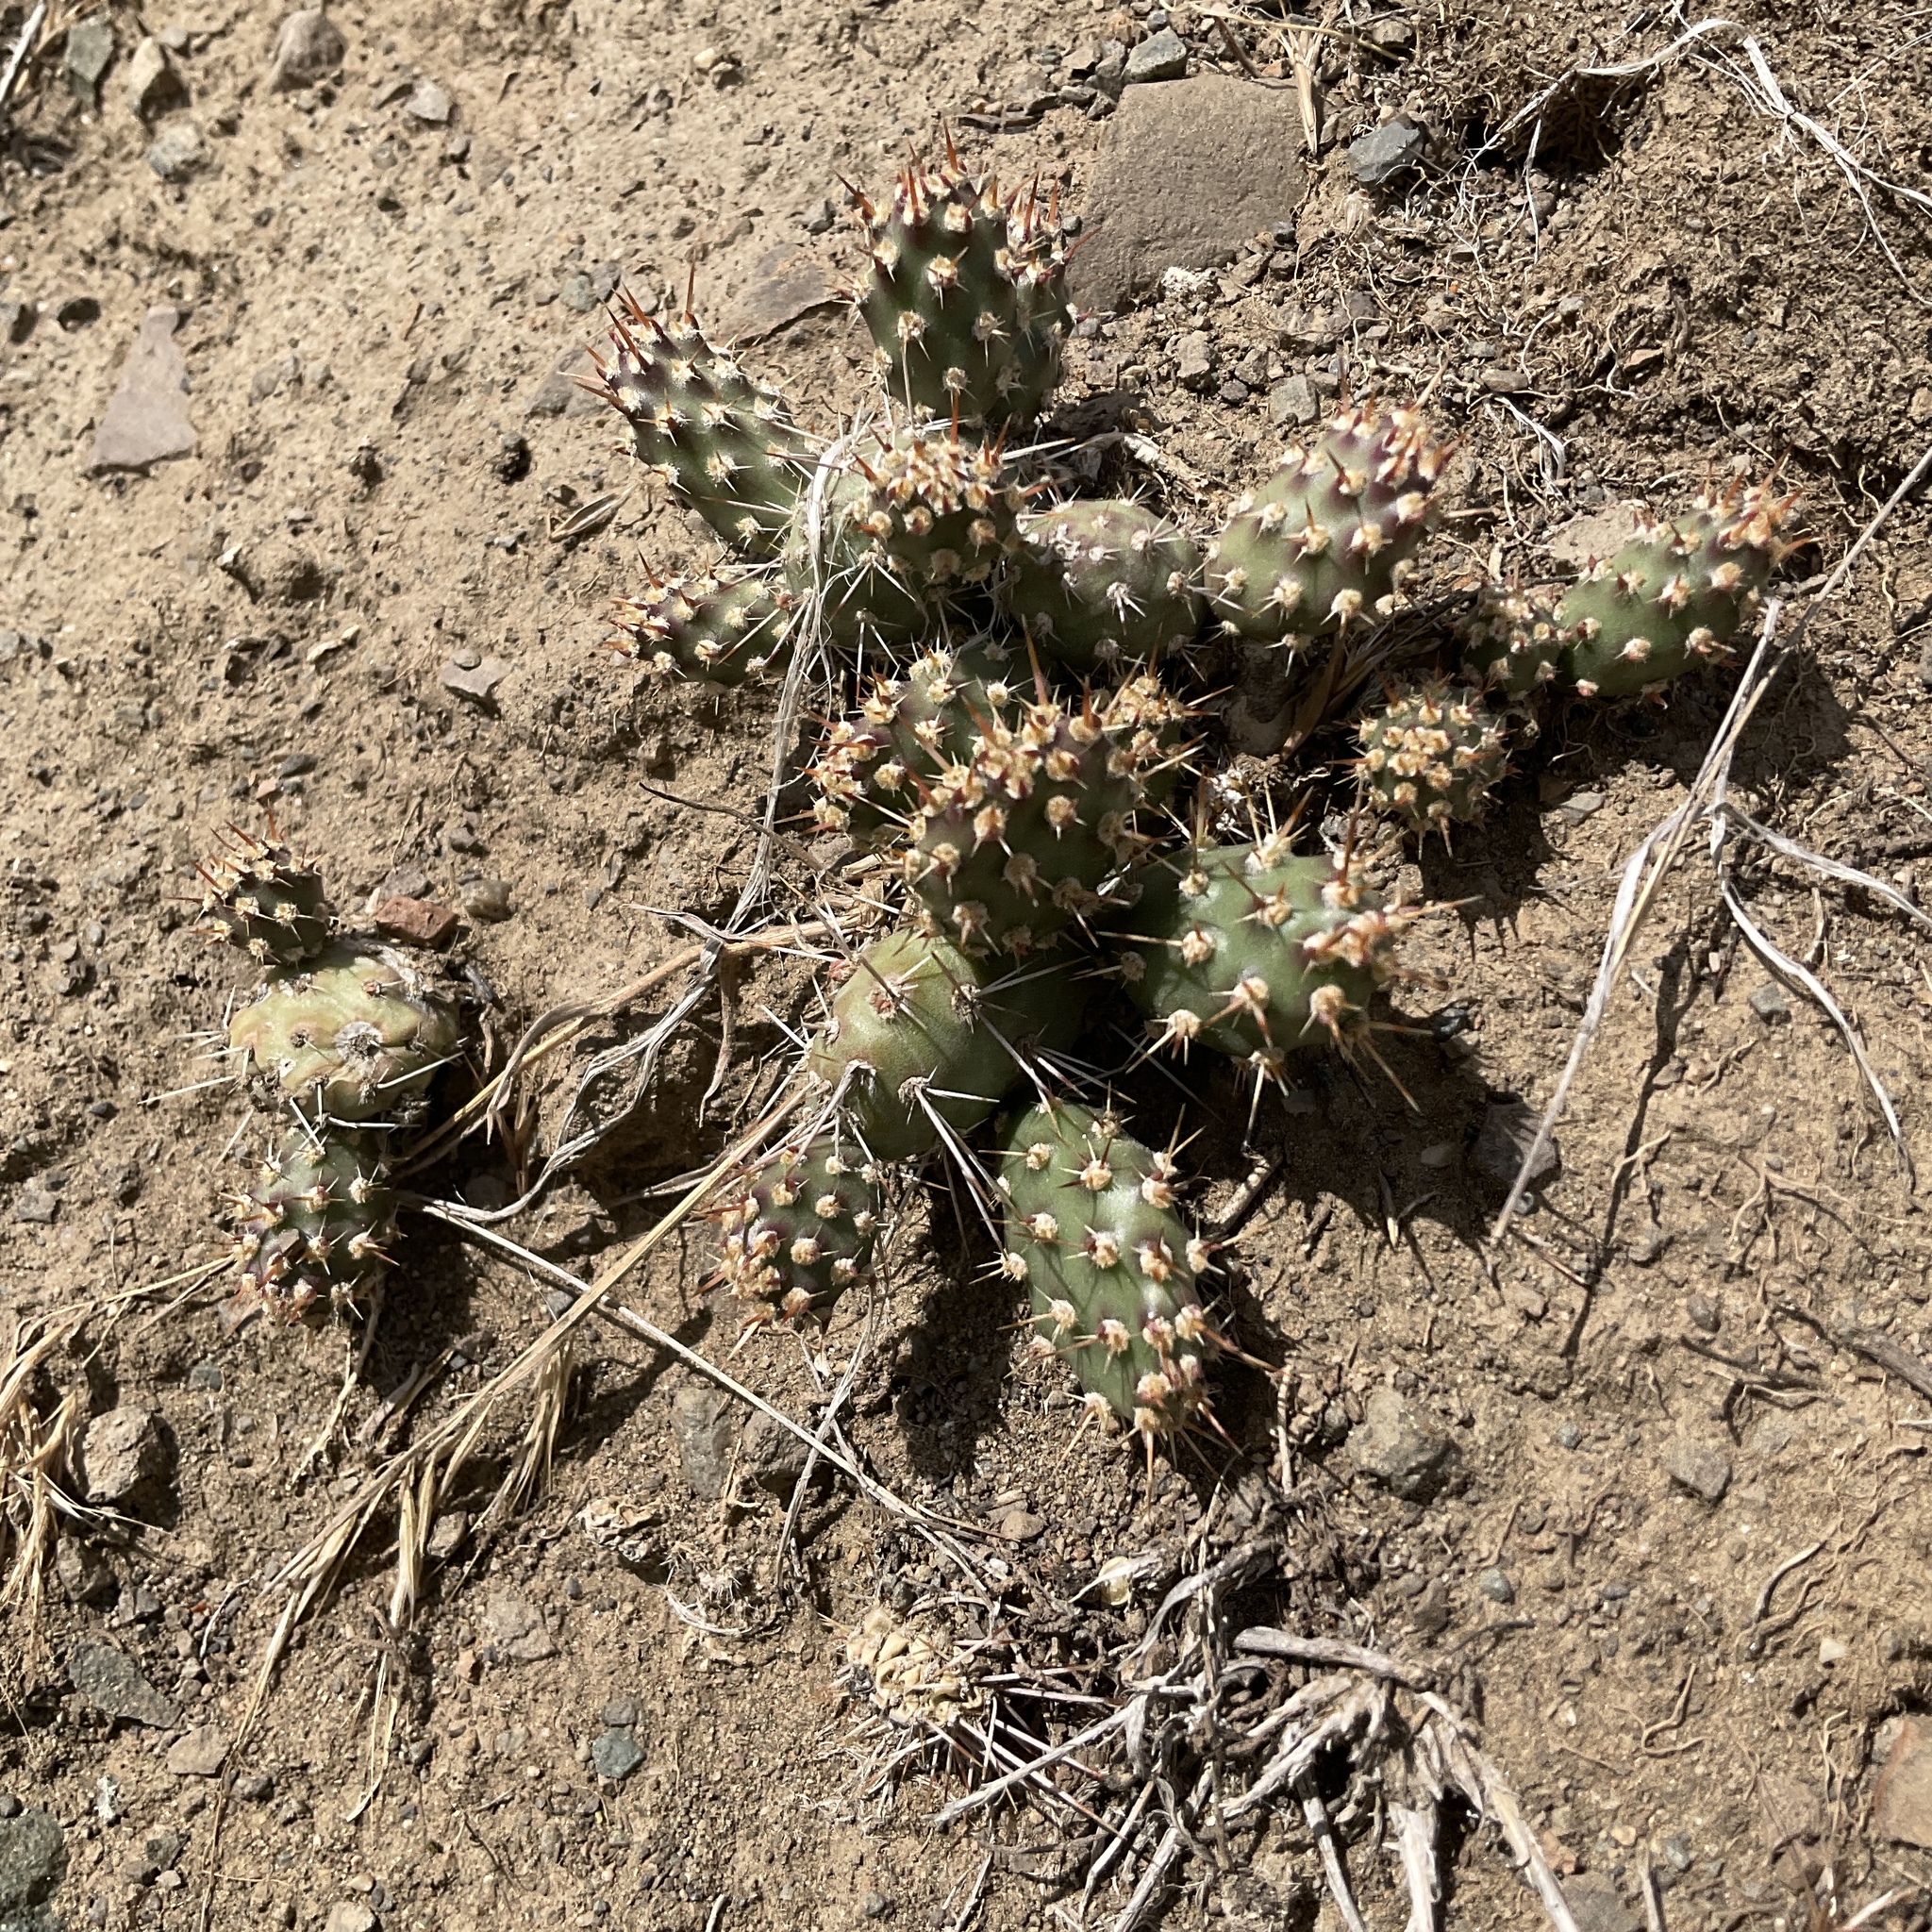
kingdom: Plantae
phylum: Tracheophyta
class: Magnoliopsida
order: Caryophyllales
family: Cactaceae
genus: Opuntia
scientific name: Opuntia fragilis
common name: Brittle cactus
